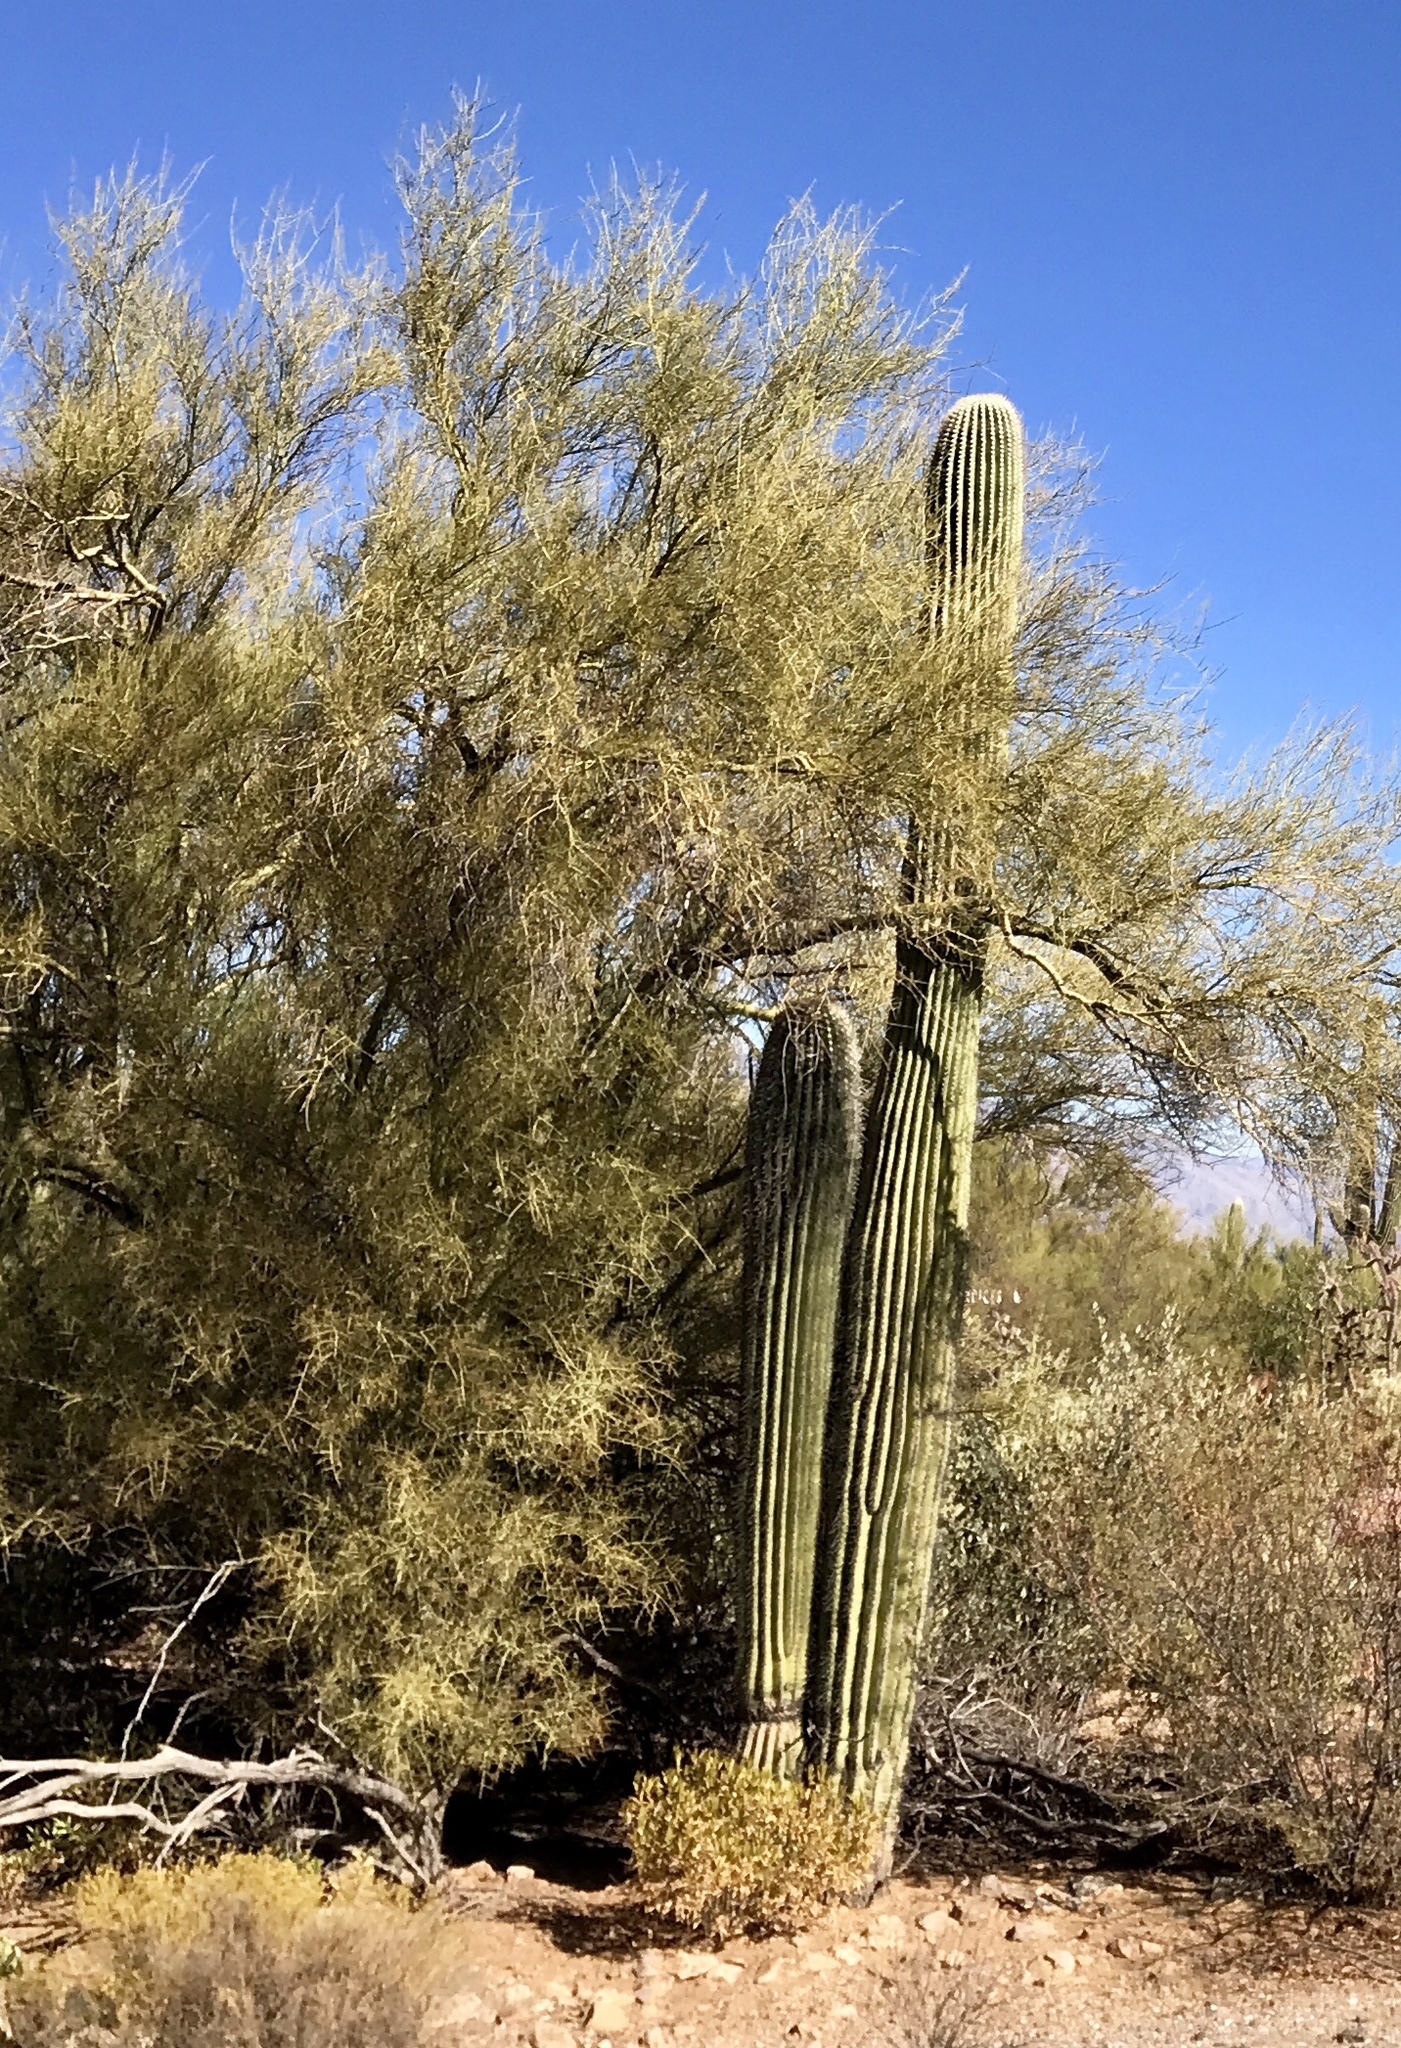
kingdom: Plantae
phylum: Tracheophyta
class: Magnoliopsida
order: Caryophyllales
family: Cactaceae
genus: Carnegiea
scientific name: Carnegiea gigantea
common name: Saguaro
